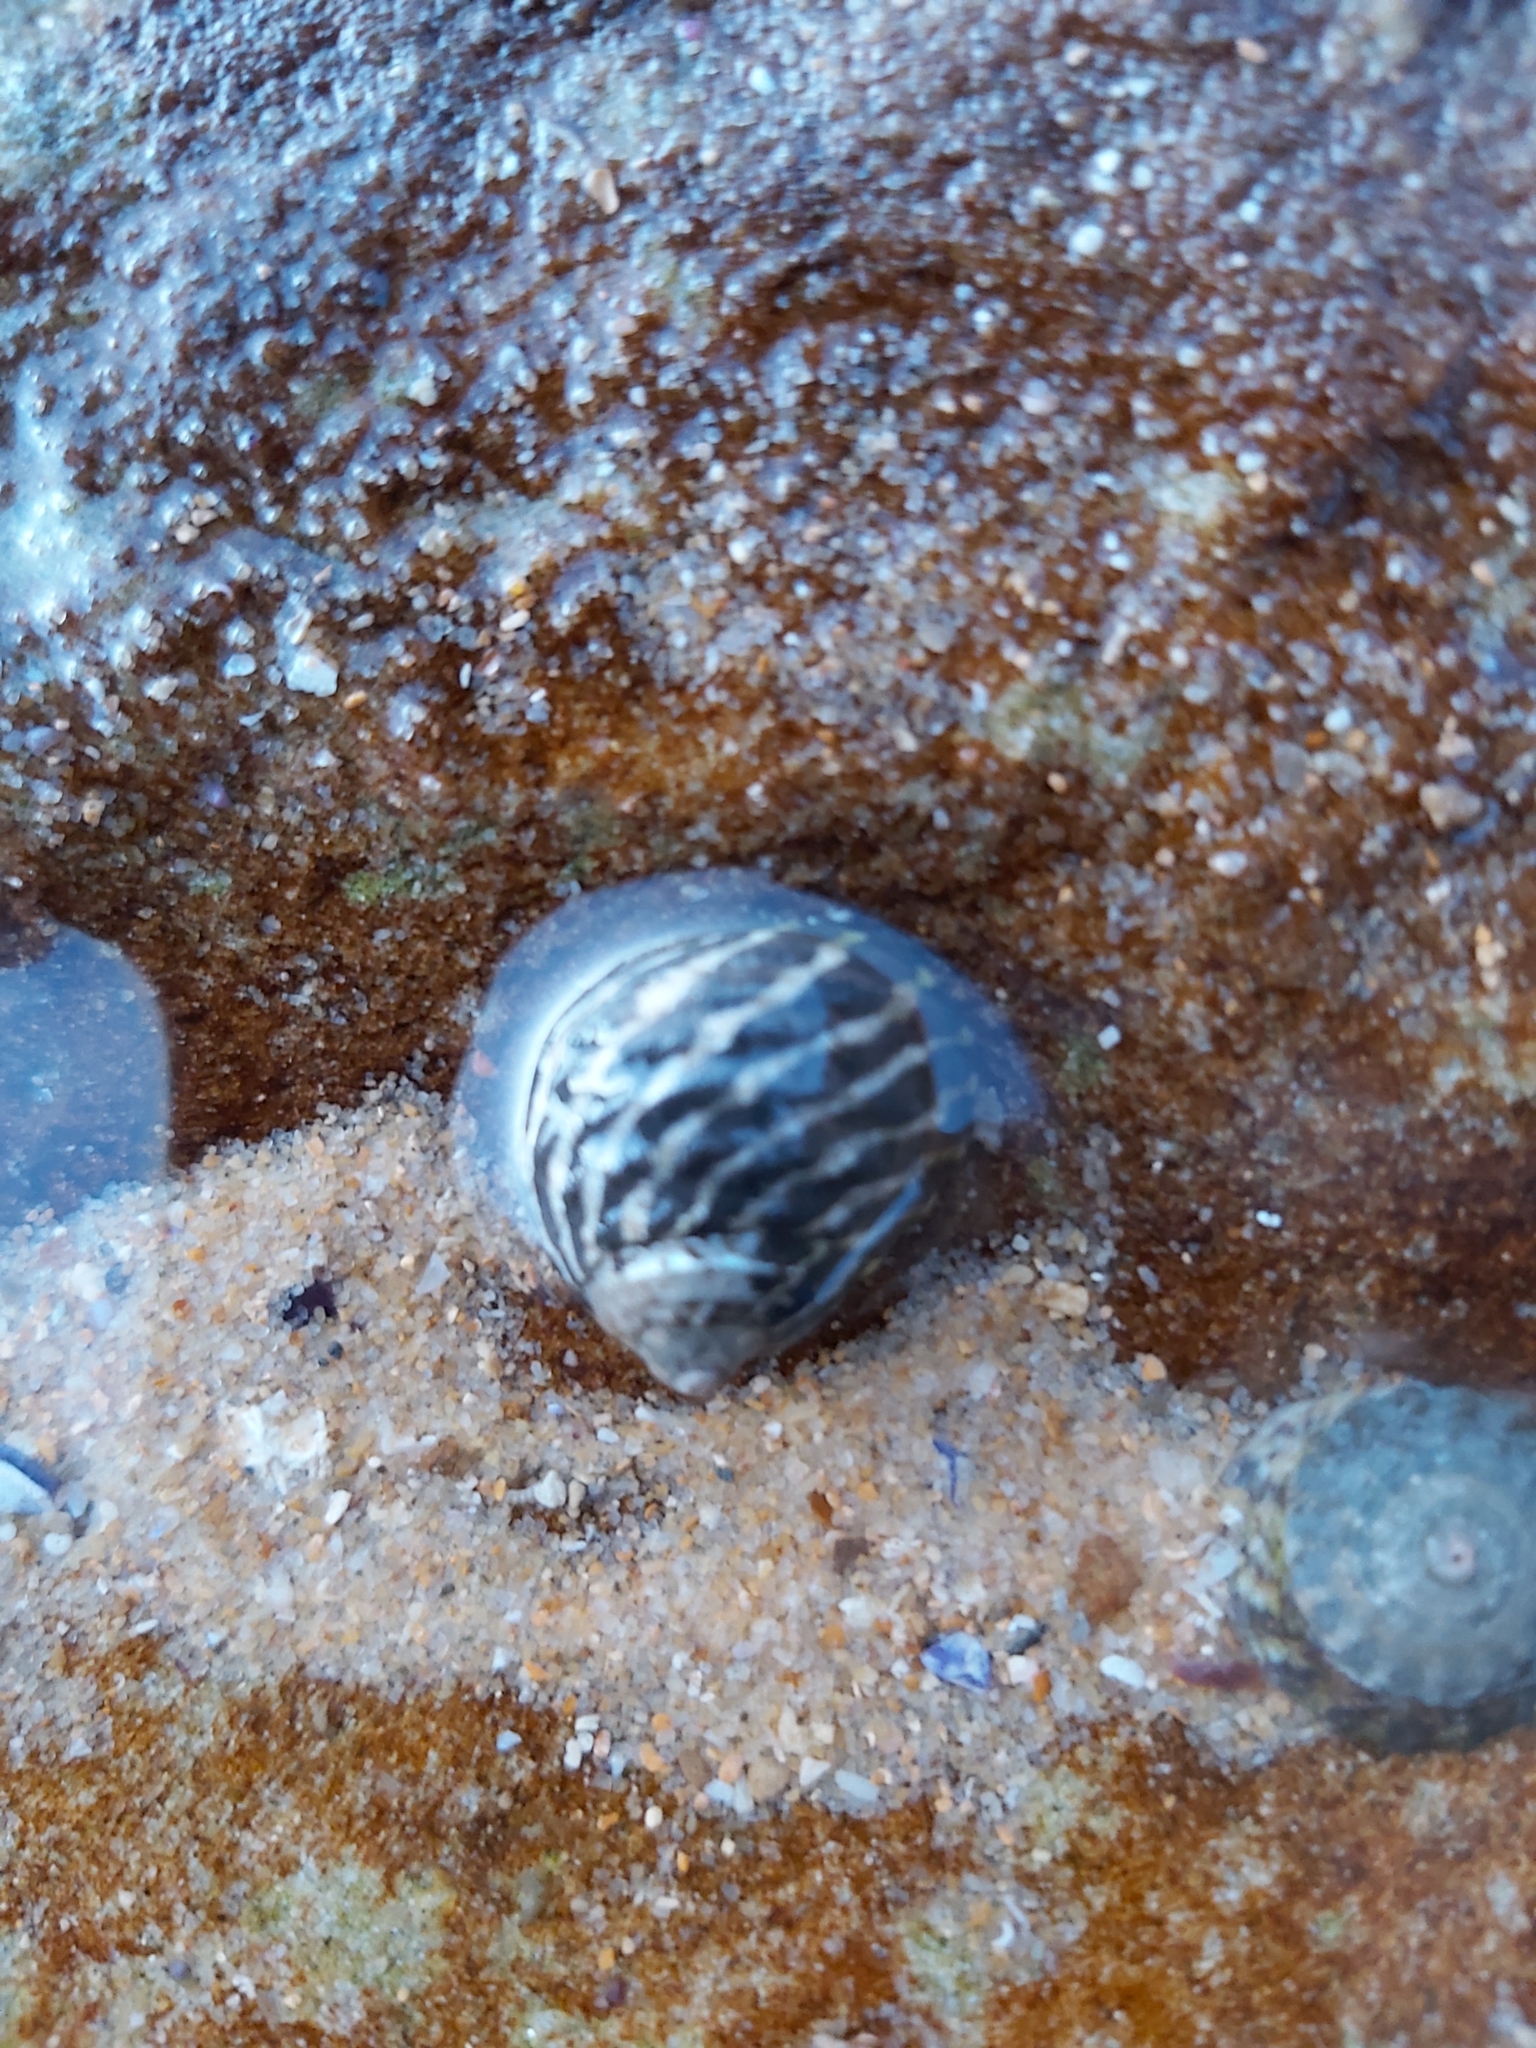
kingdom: Animalia
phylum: Mollusca
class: Gastropoda
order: Trochida
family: Trochidae
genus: Austrocochlea
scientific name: Austrocochlea porcata
